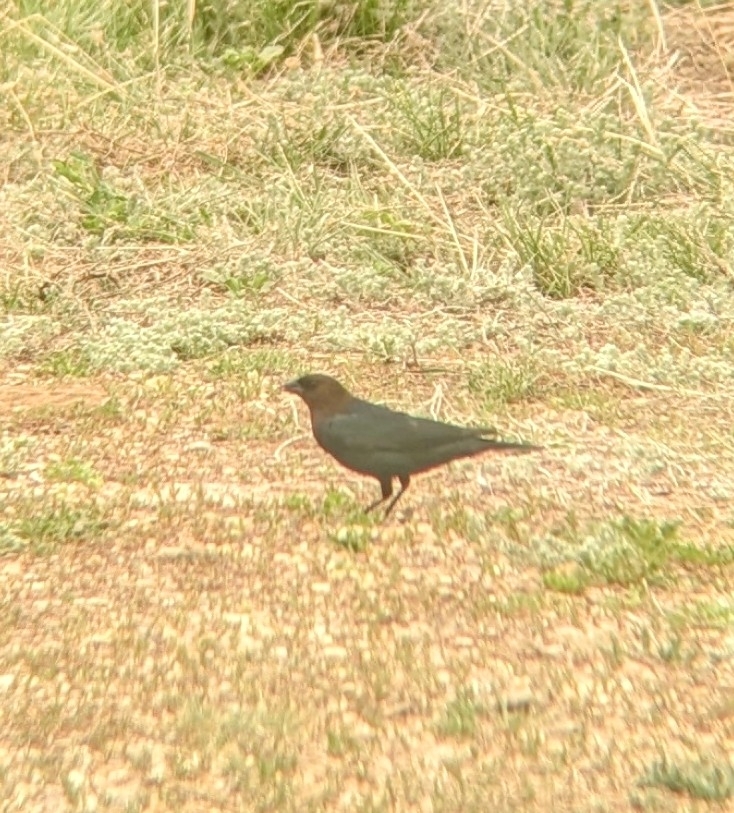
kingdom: Animalia
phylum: Chordata
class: Aves
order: Passeriformes
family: Icteridae
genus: Molothrus
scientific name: Molothrus ater
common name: Brown-headed cowbird
